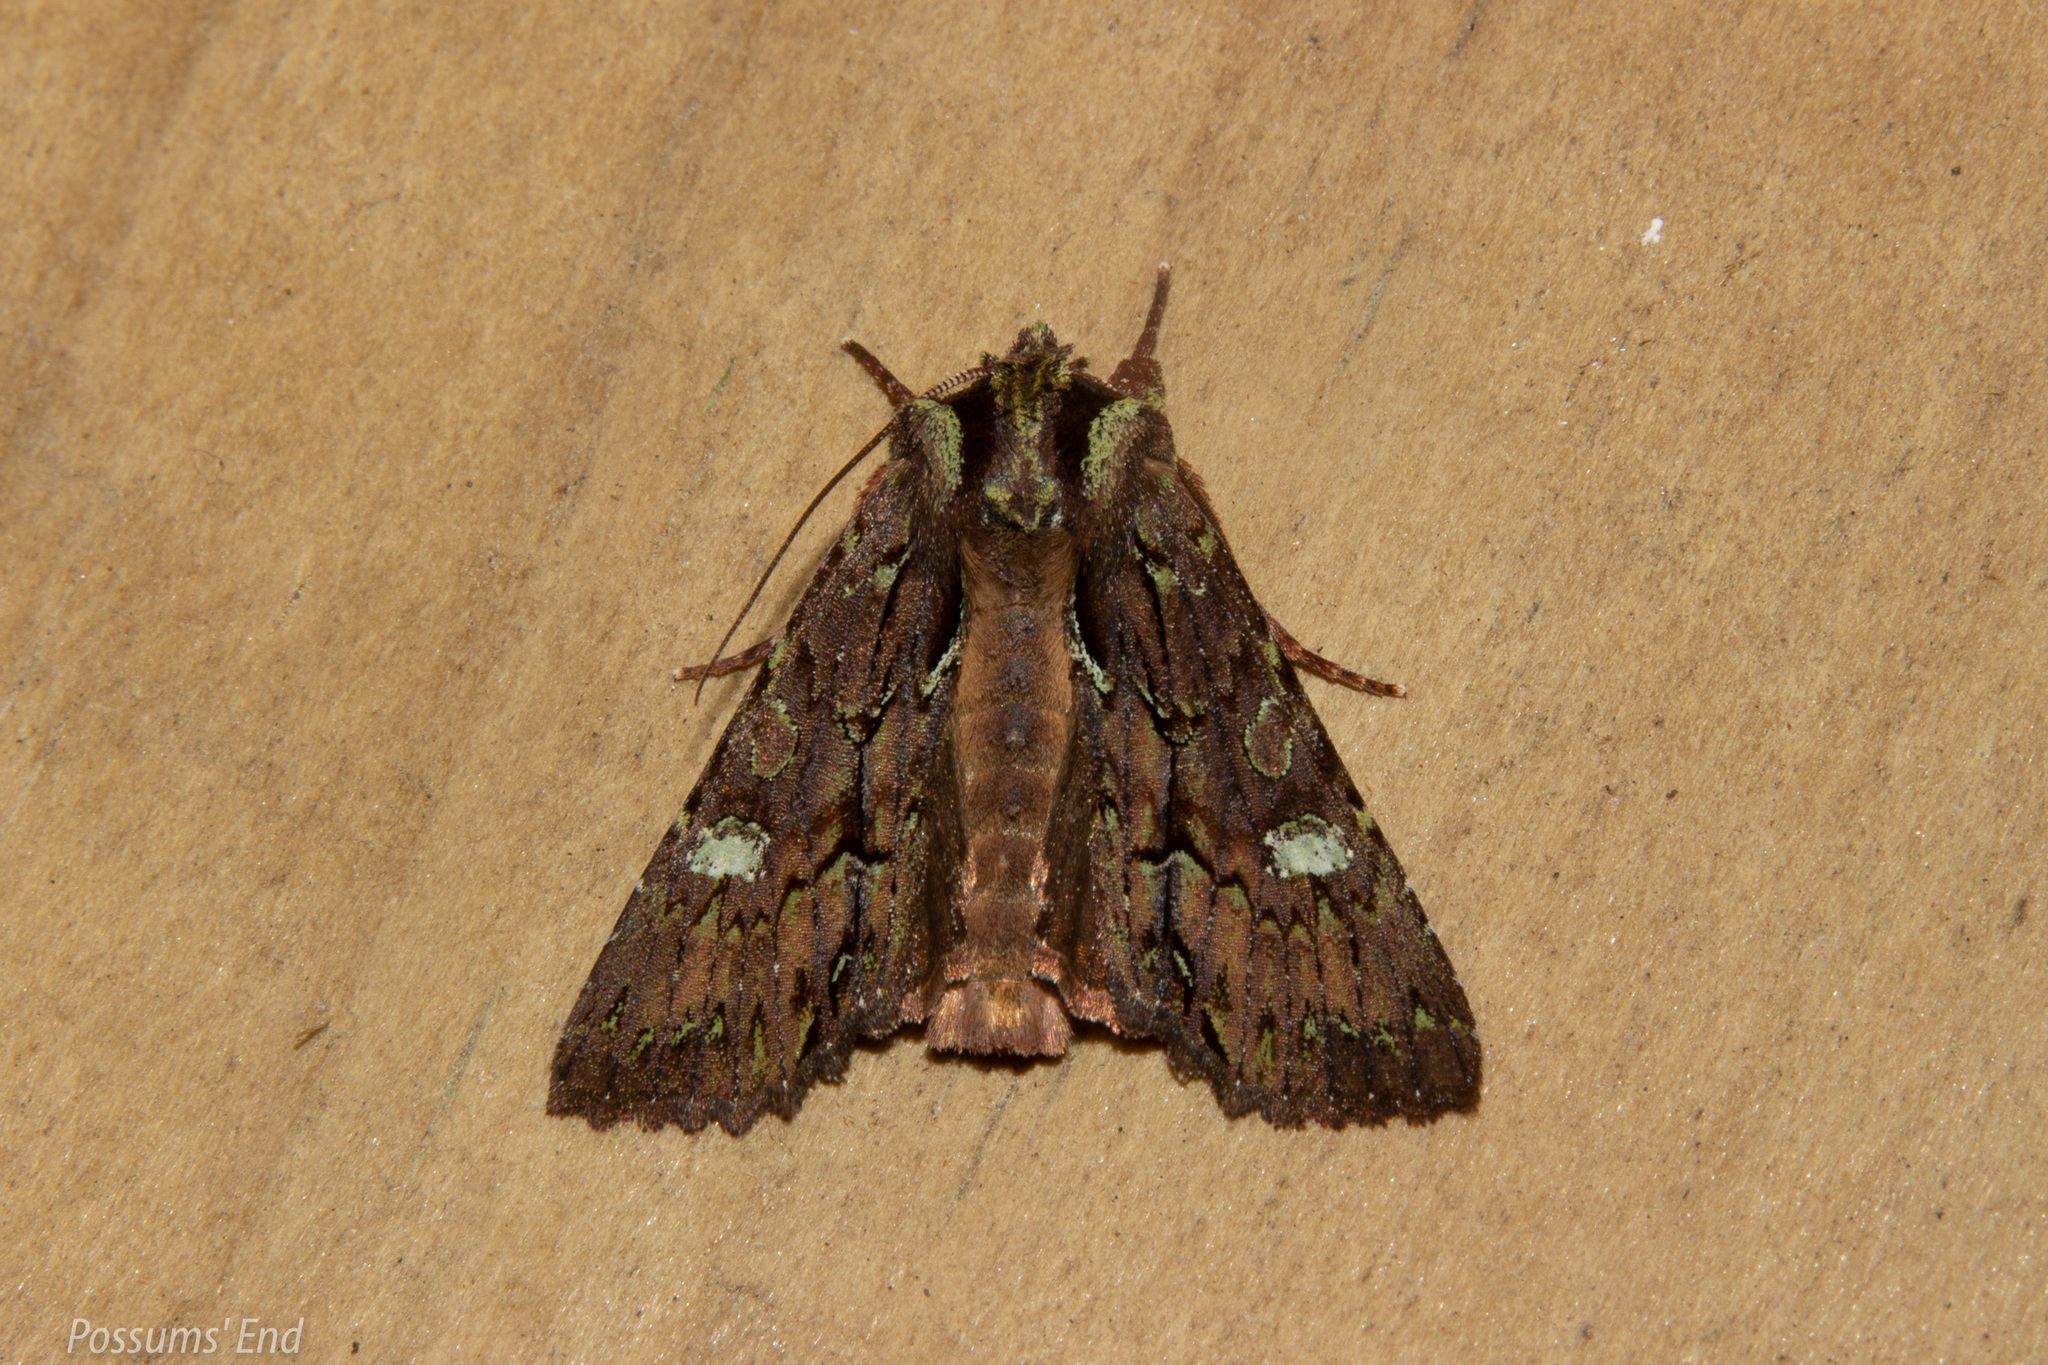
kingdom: Animalia
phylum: Arthropoda
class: Insecta
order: Lepidoptera
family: Noctuidae
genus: Meterana
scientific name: Meterana diatmeta
